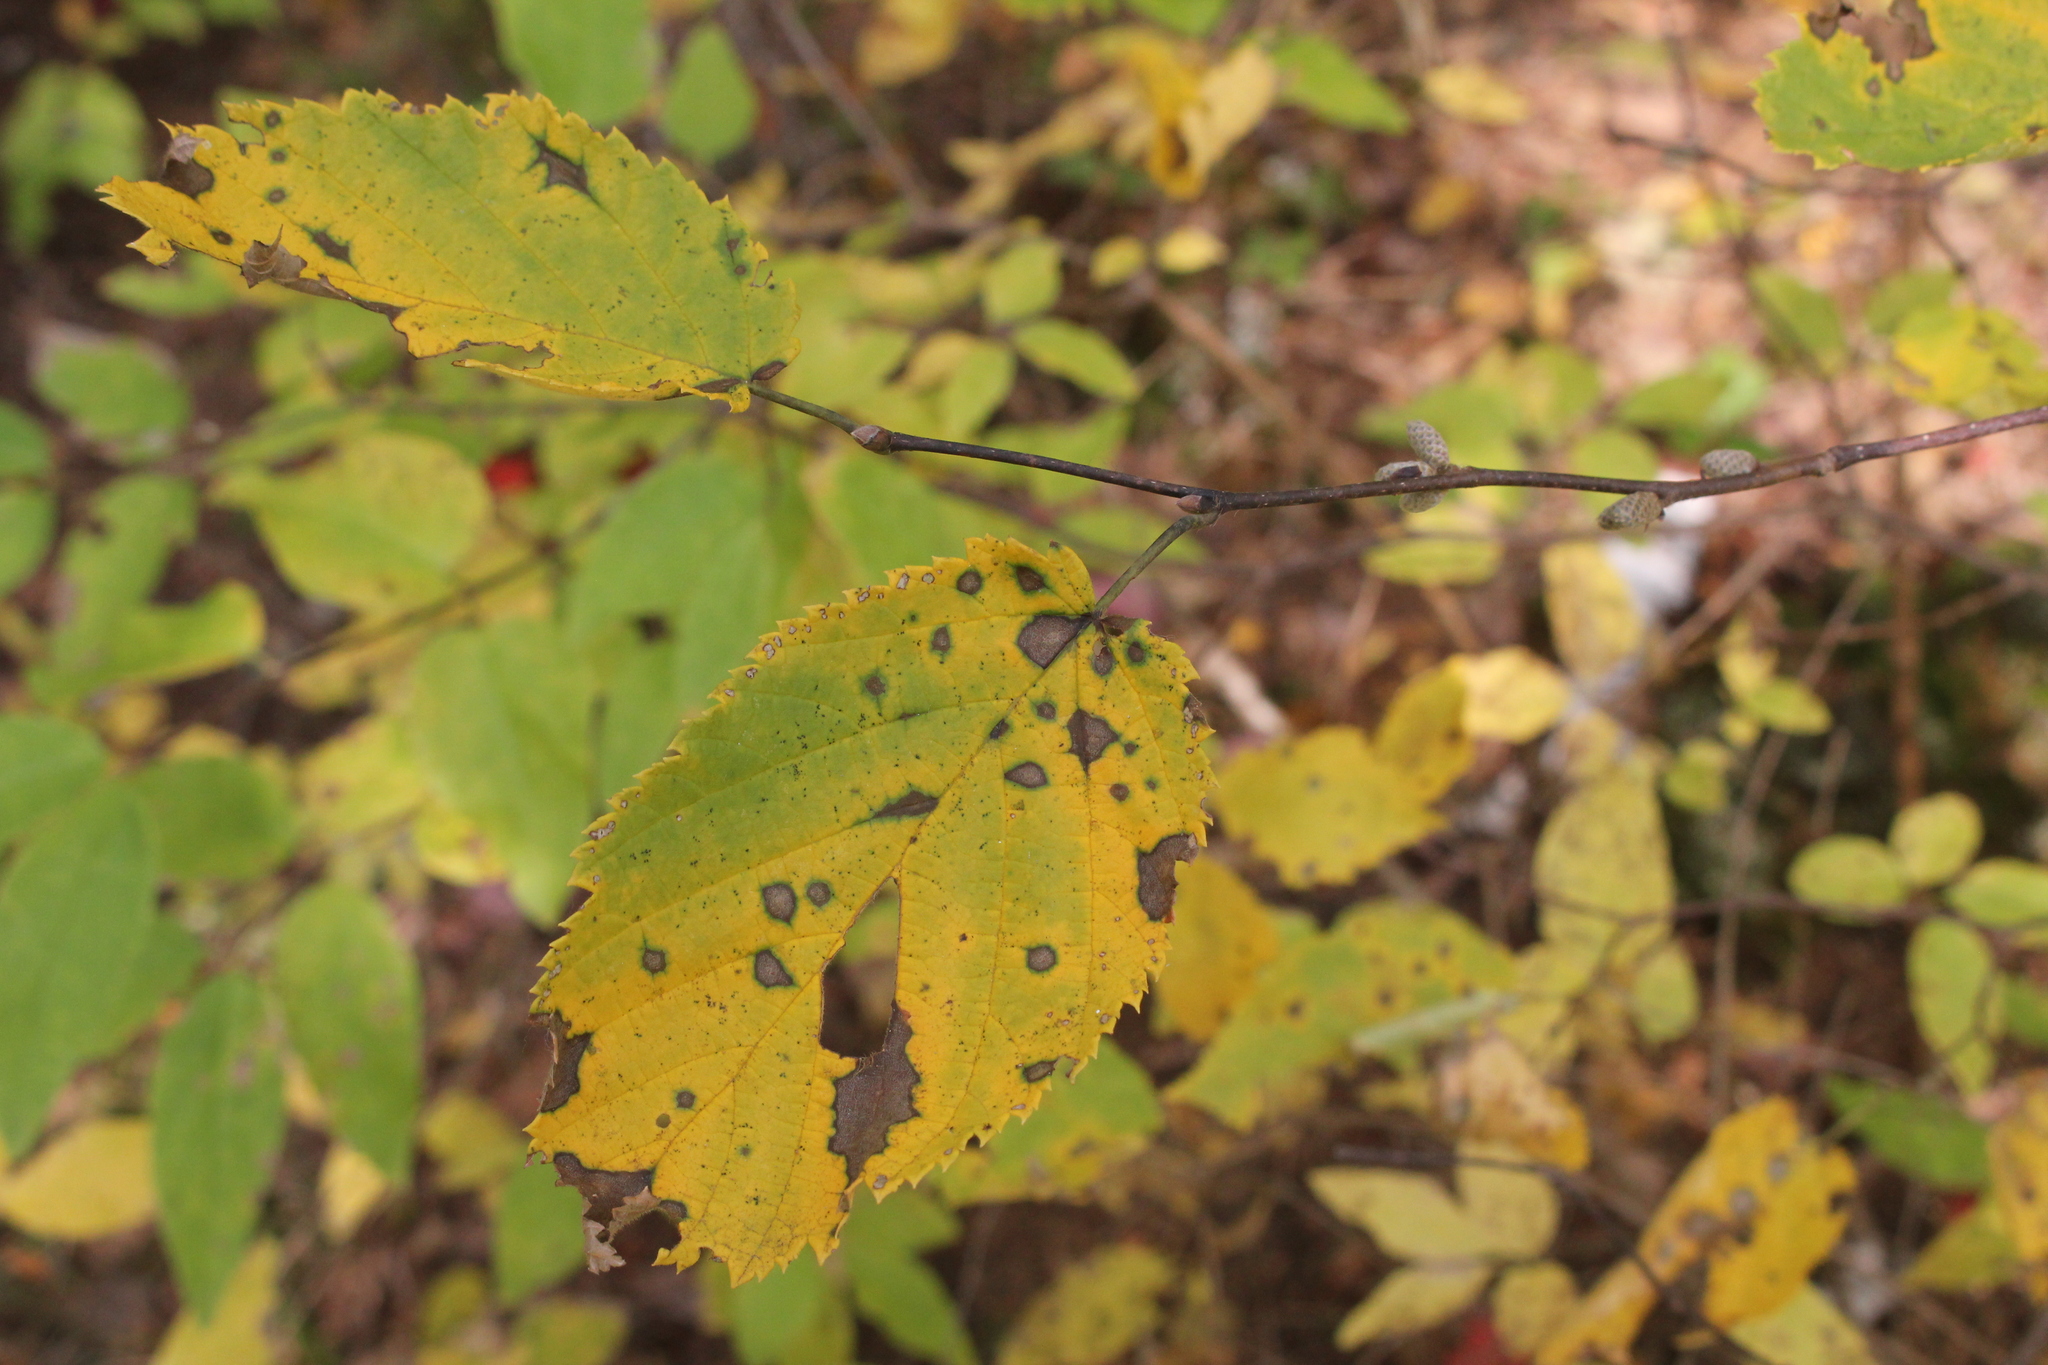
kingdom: Plantae
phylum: Tracheophyta
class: Magnoliopsida
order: Fagales
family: Betulaceae
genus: Corylus
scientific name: Corylus cornuta
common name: Beaked hazel
